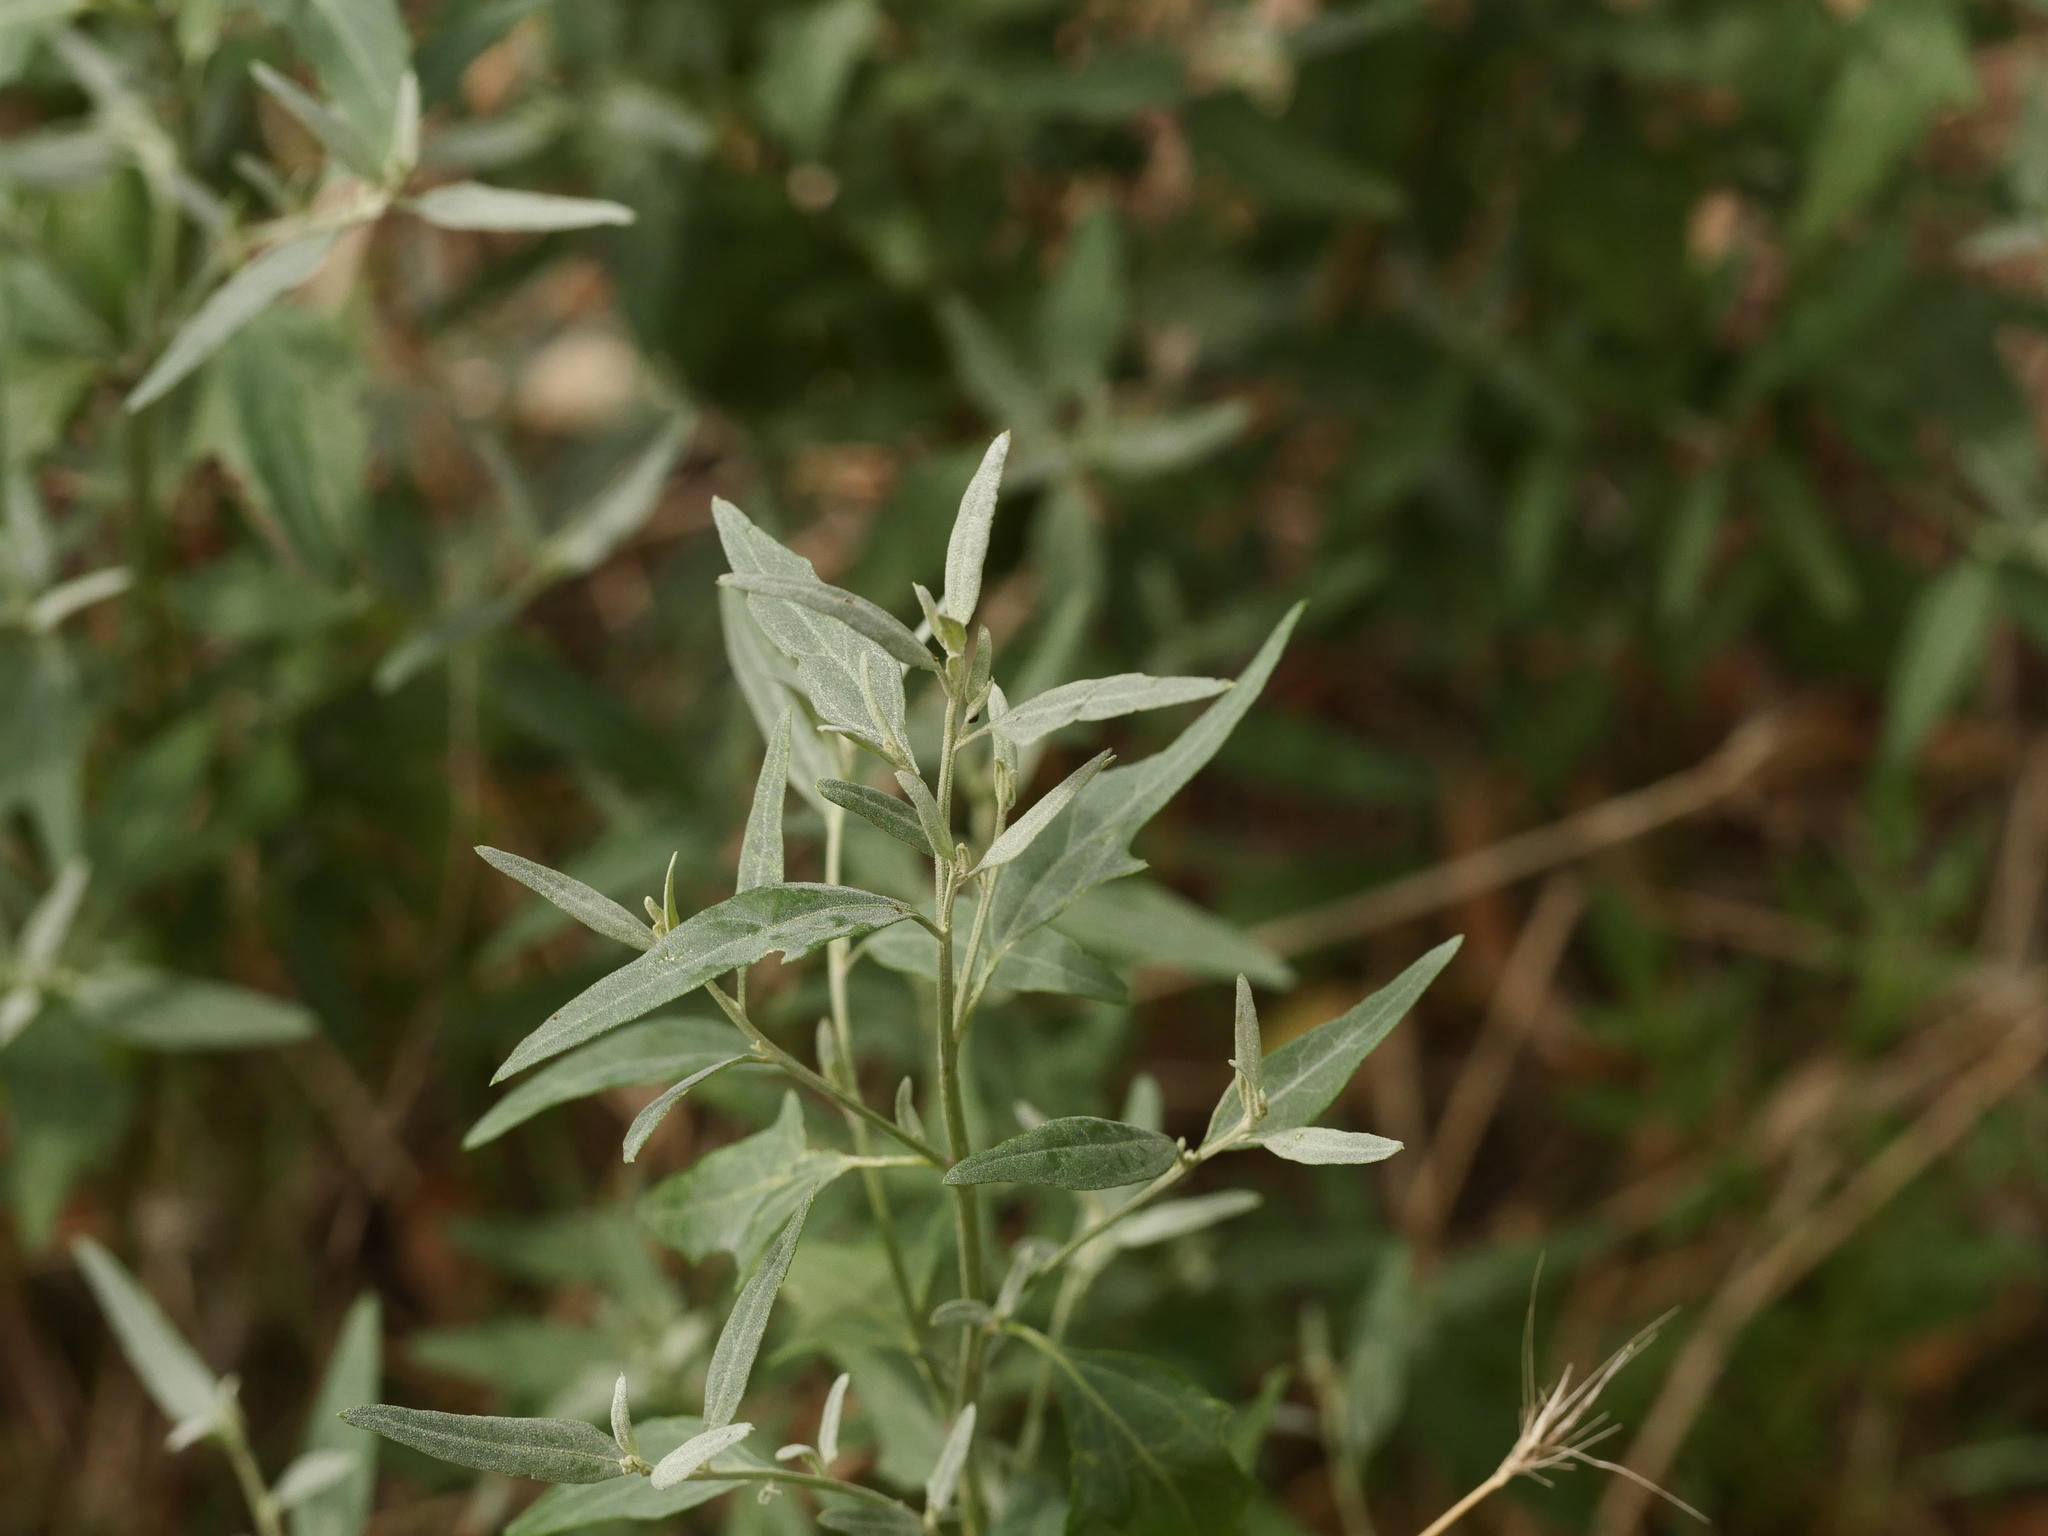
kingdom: Plantae
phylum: Tracheophyta
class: Magnoliopsida
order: Caryophyllales
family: Amaranthaceae
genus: Atriplex
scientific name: Atriplex oblongifolia
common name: Oblongleaf orache
